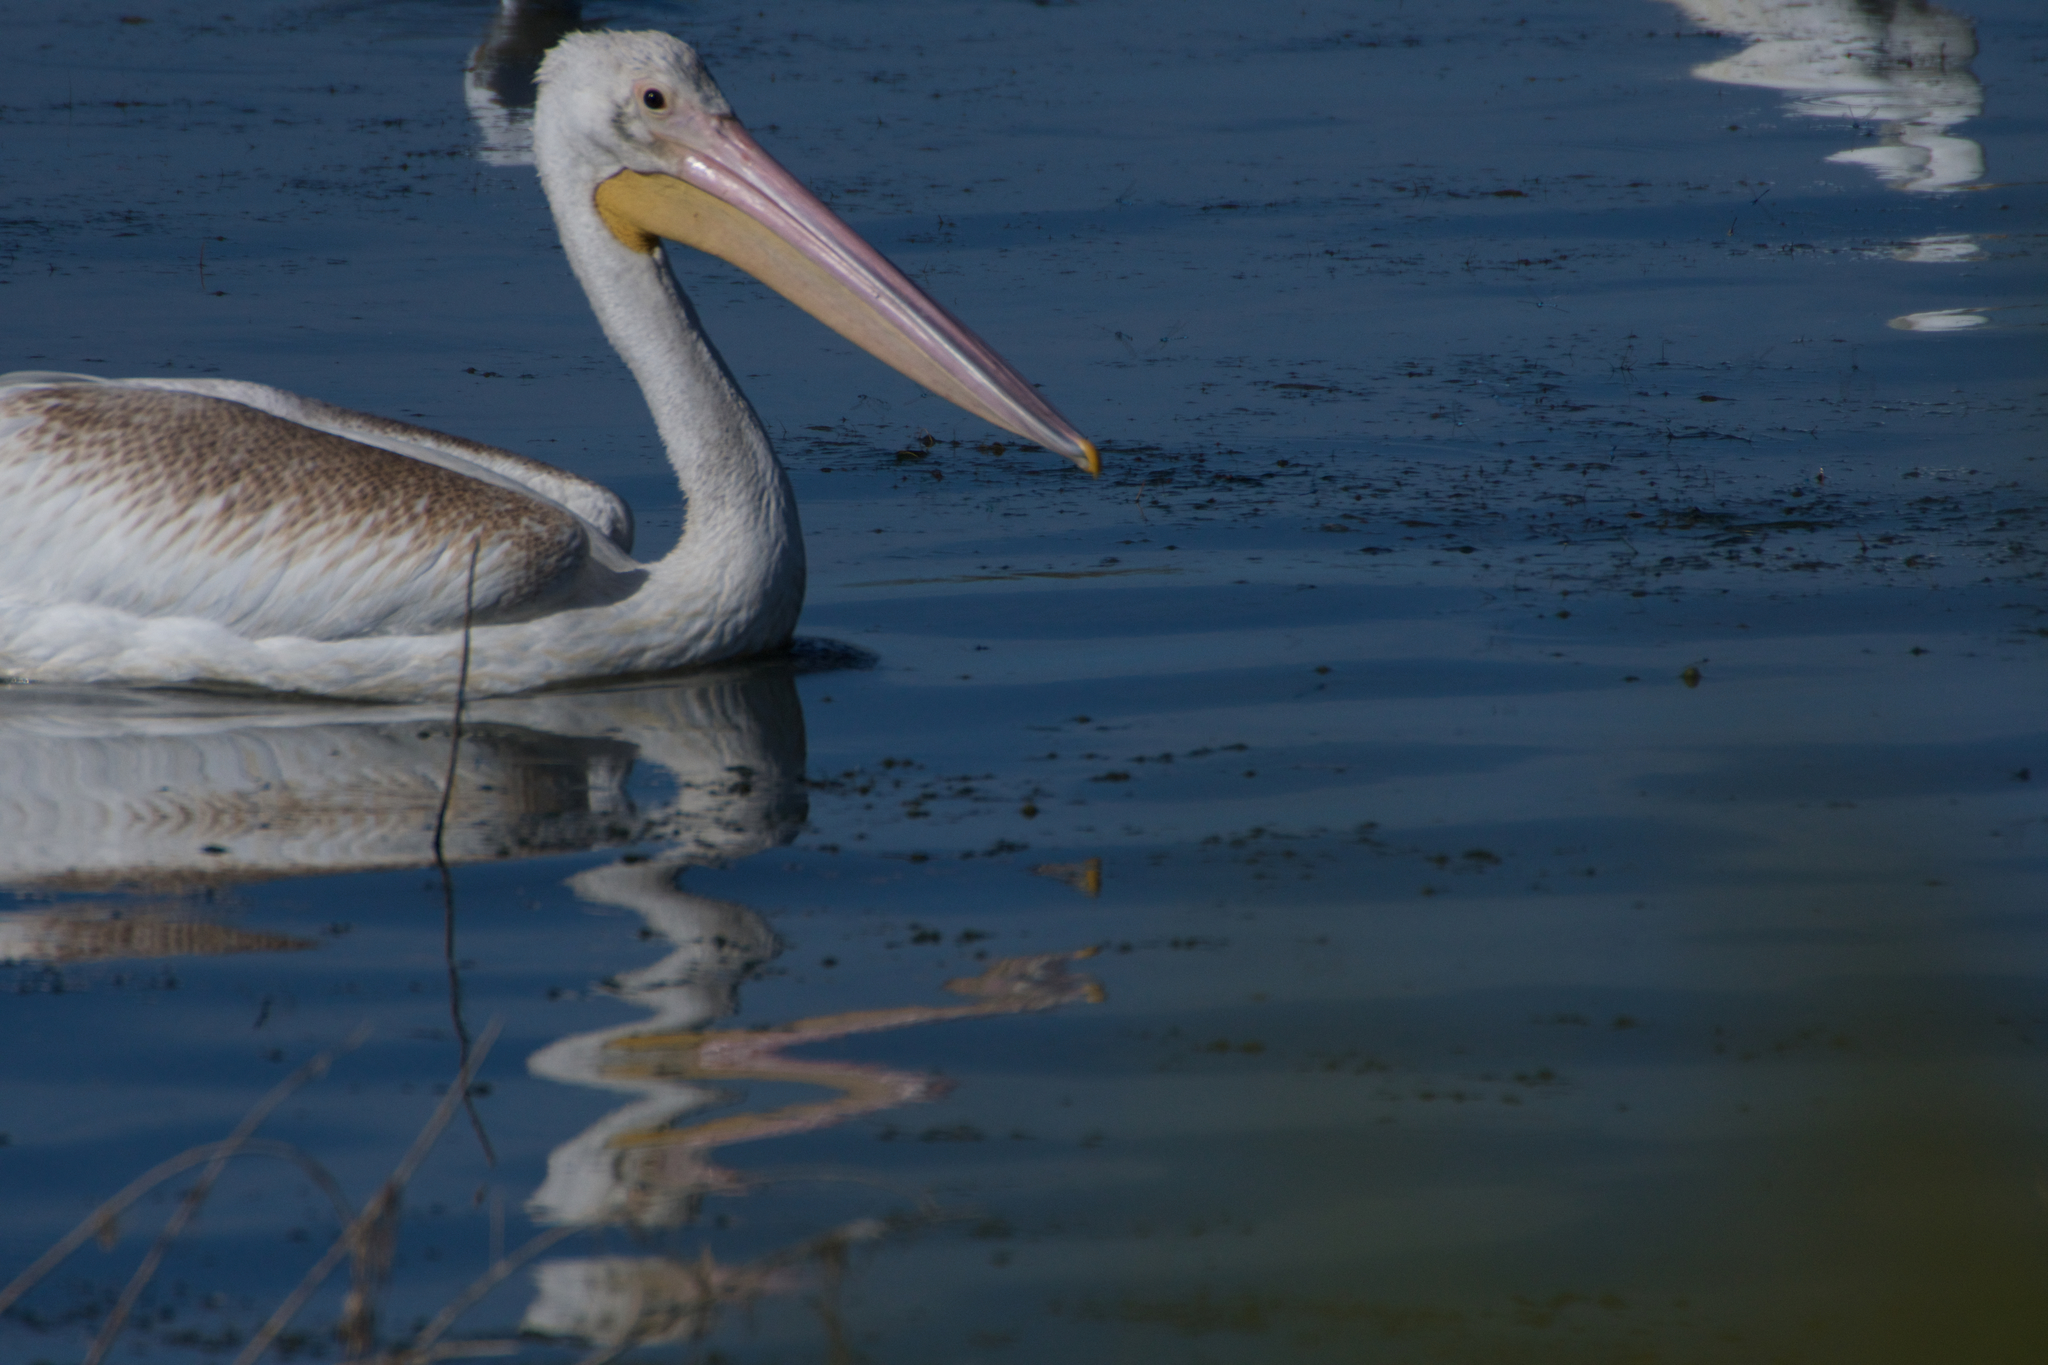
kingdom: Animalia
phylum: Chordata
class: Aves
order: Pelecaniformes
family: Pelecanidae
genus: Pelecanus
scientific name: Pelecanus erythrorhynchos
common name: American white pelican
